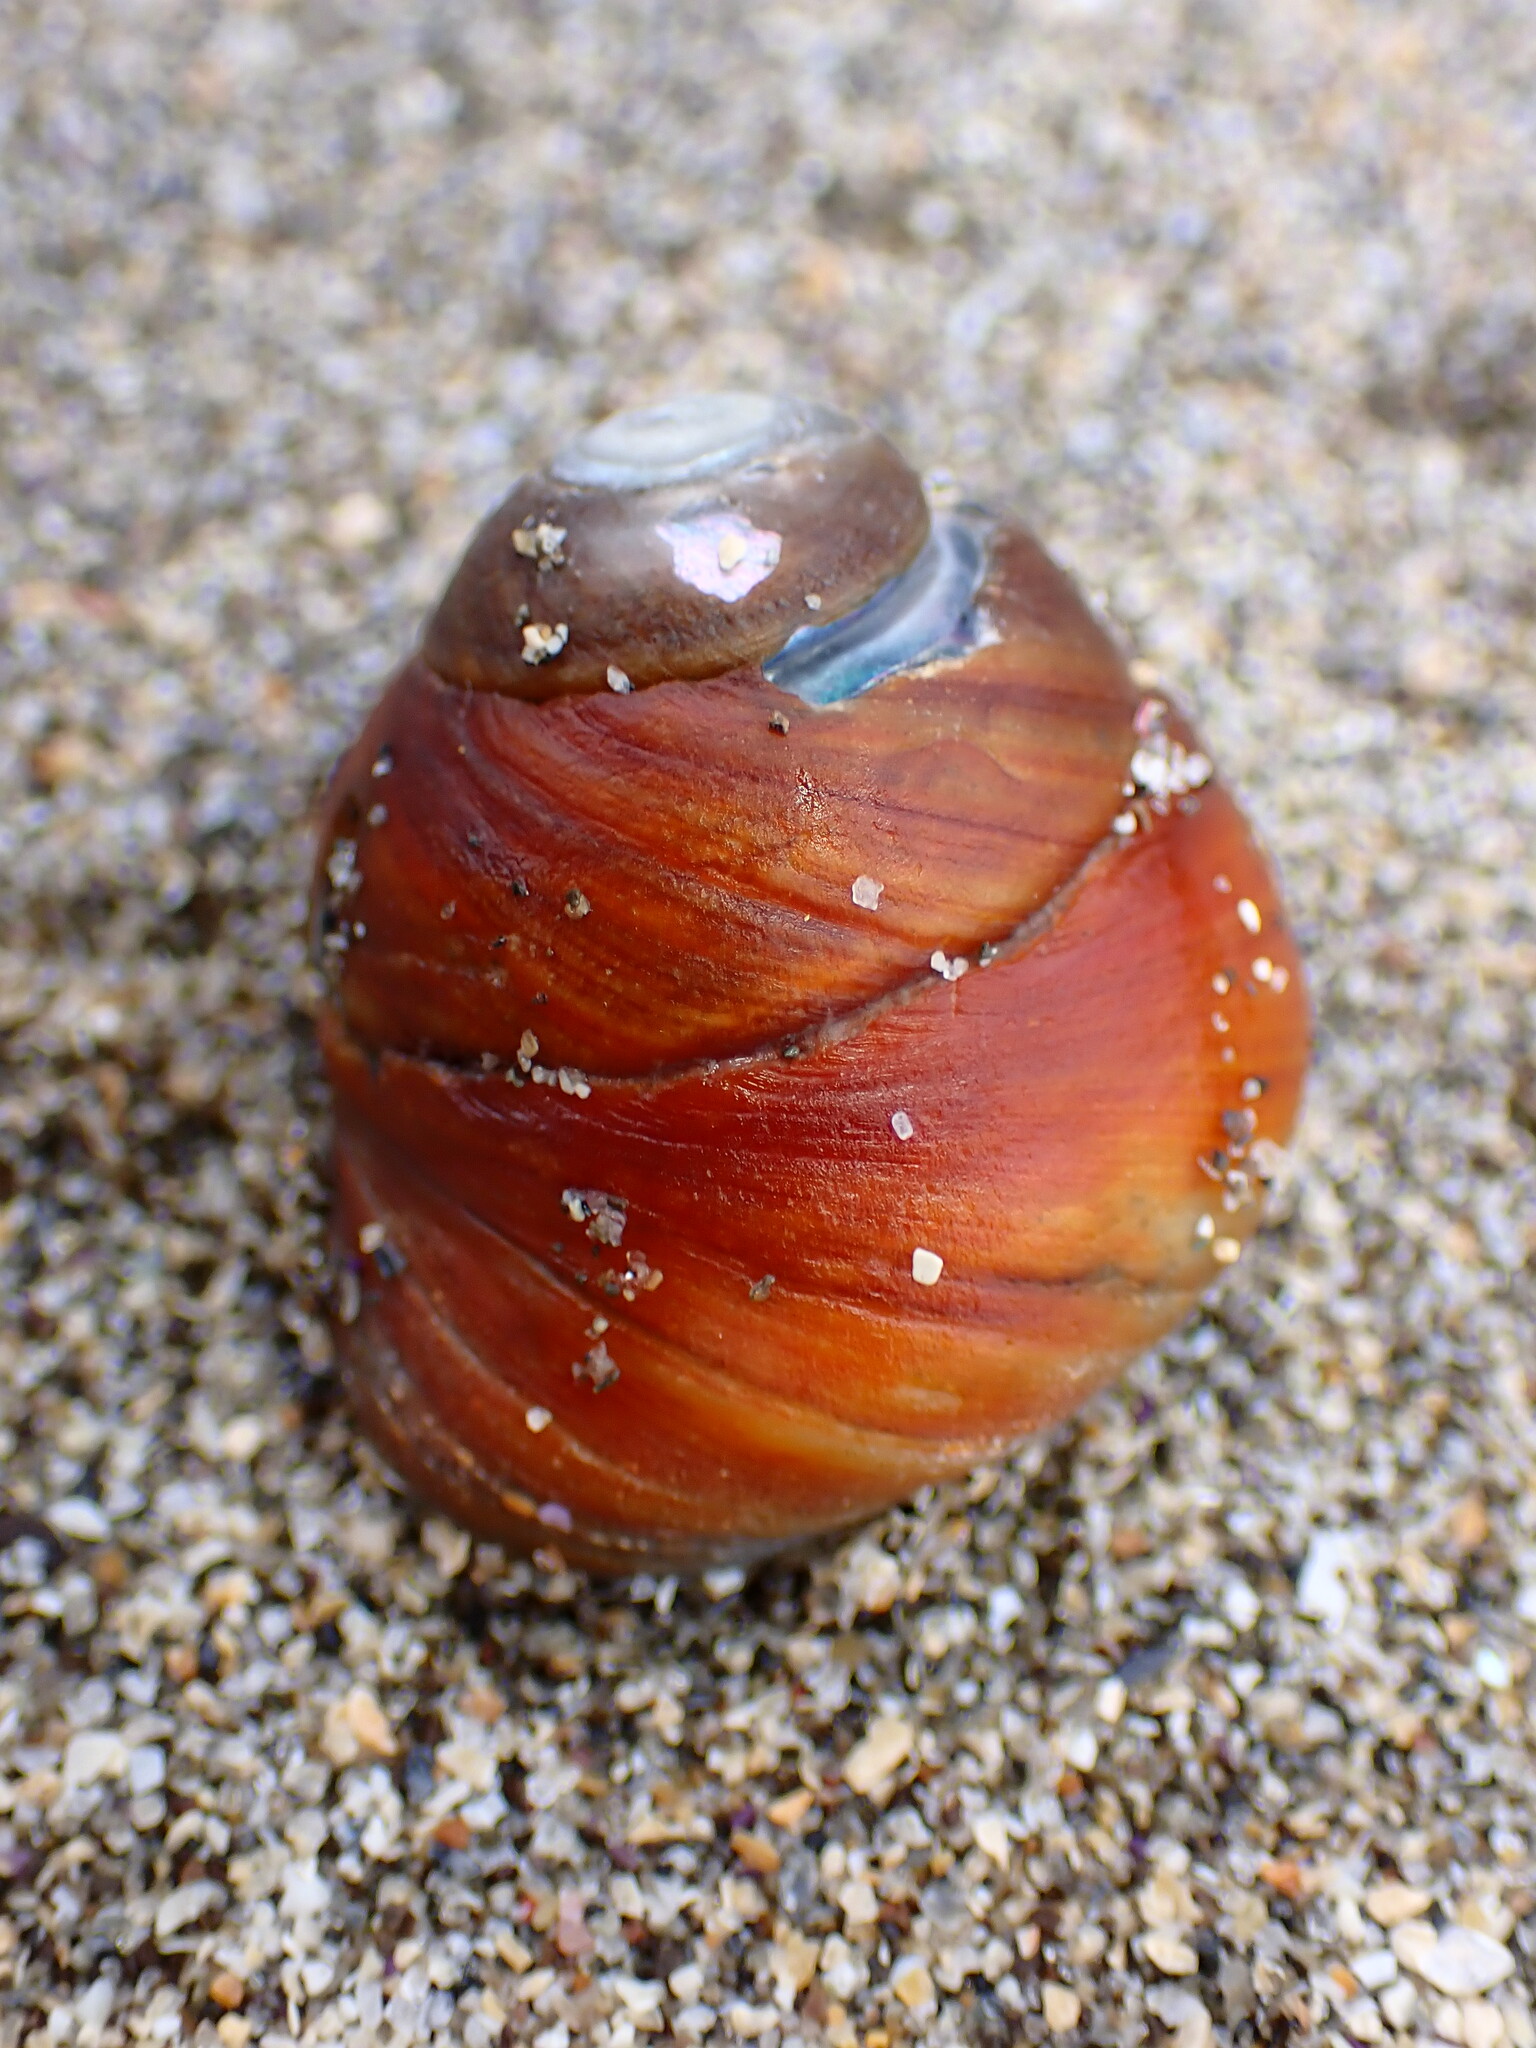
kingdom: Animalia
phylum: Mollusca
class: Gastropoda
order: Trochida
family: Tegulidae
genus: Tegula
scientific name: Tegula brunnea
